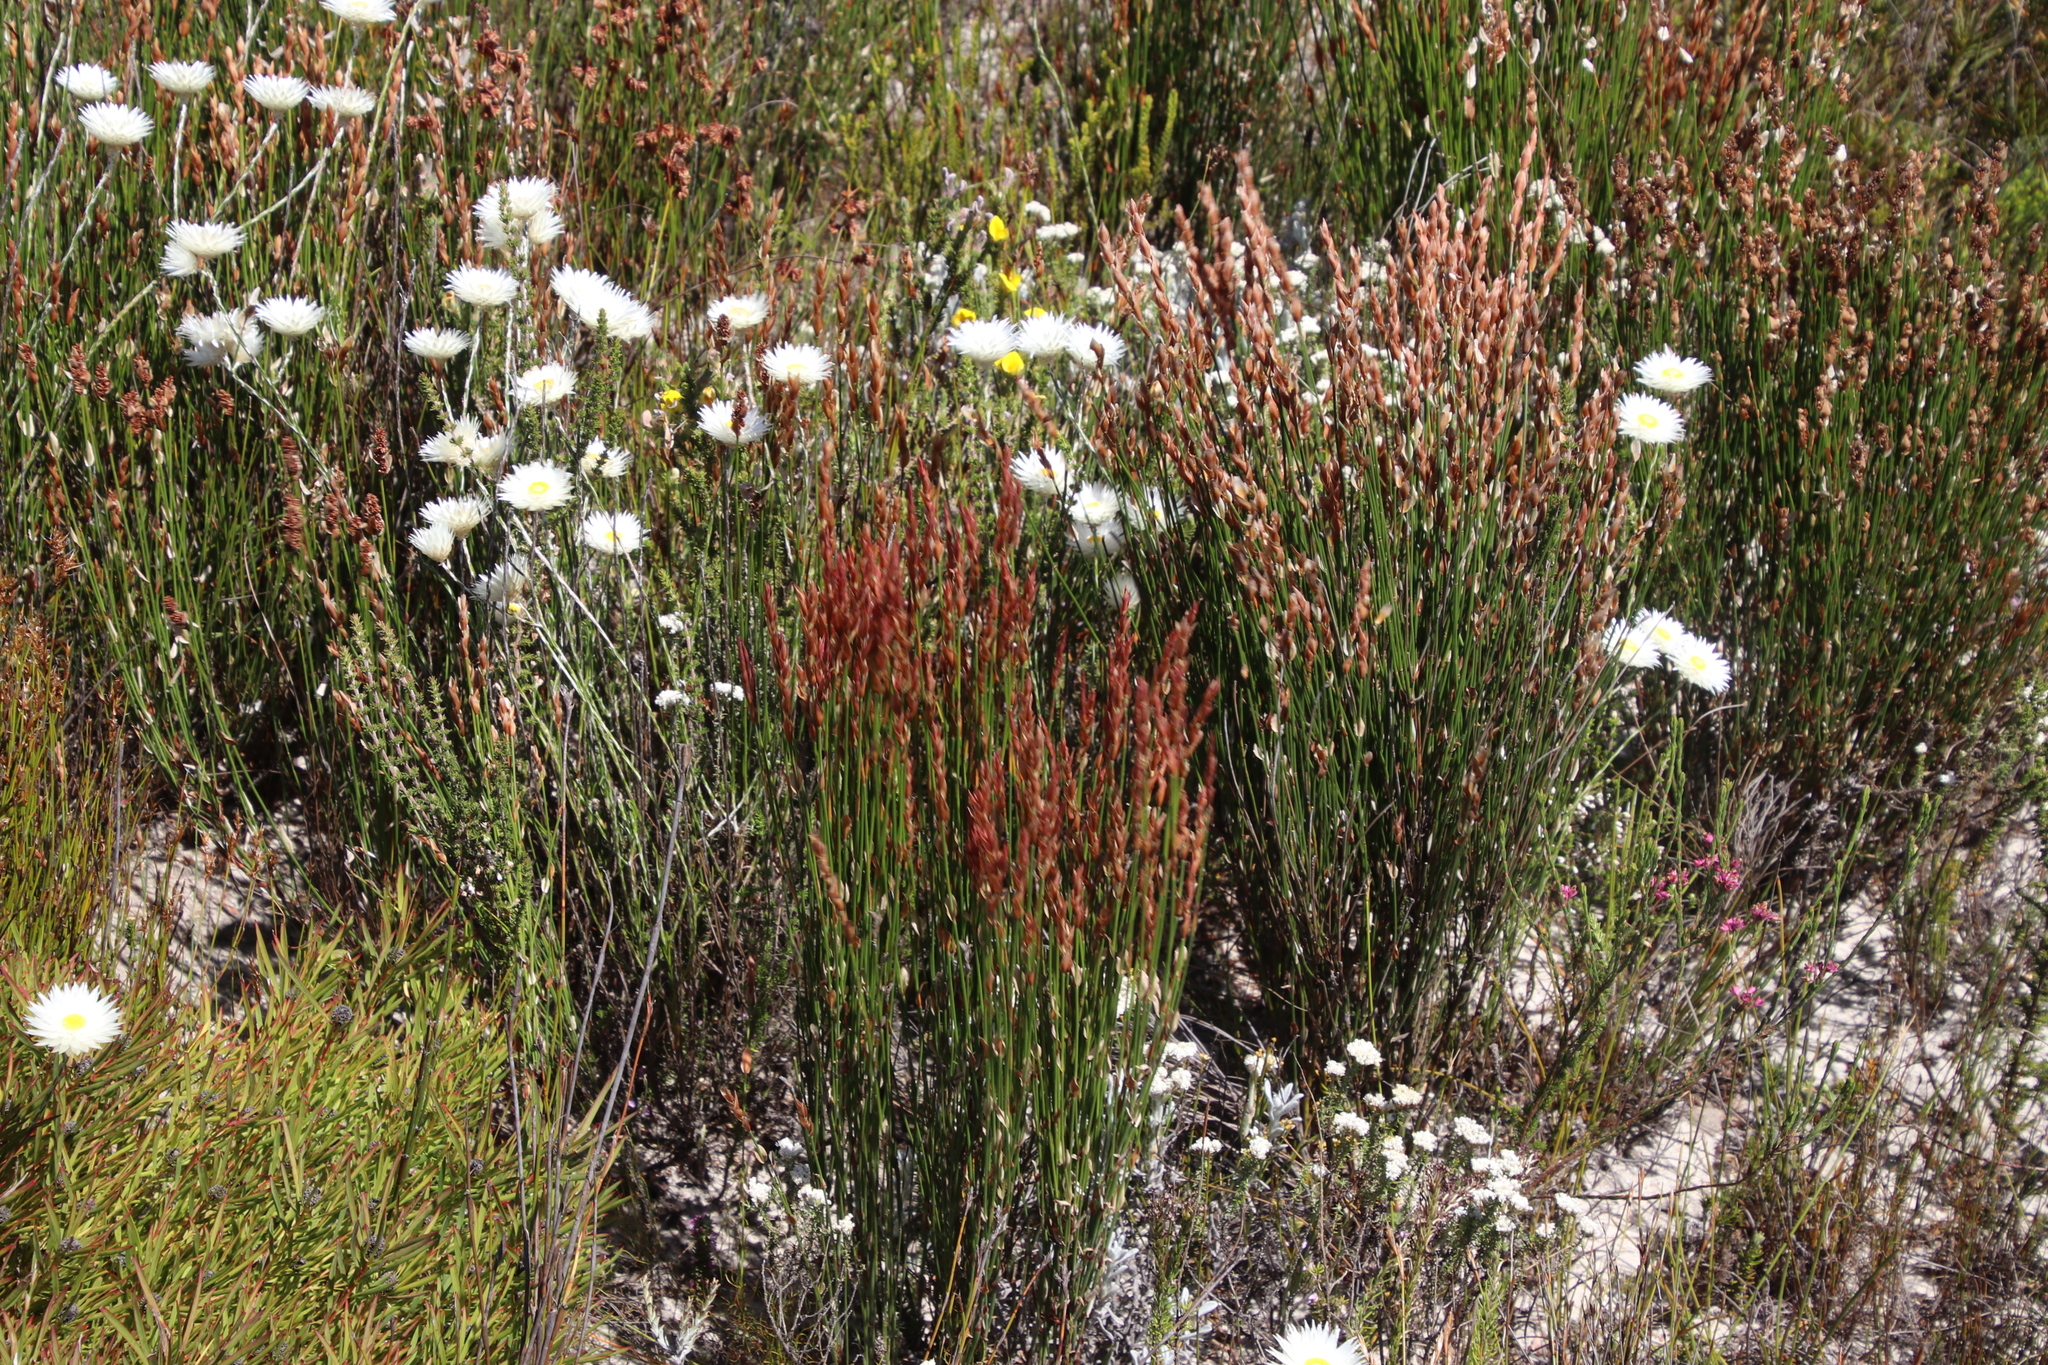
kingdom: Plantae
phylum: Tracheophyta
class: Liliopsida
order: Poales
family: Restionaceae
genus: Elegia
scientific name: Elegia stipularis
